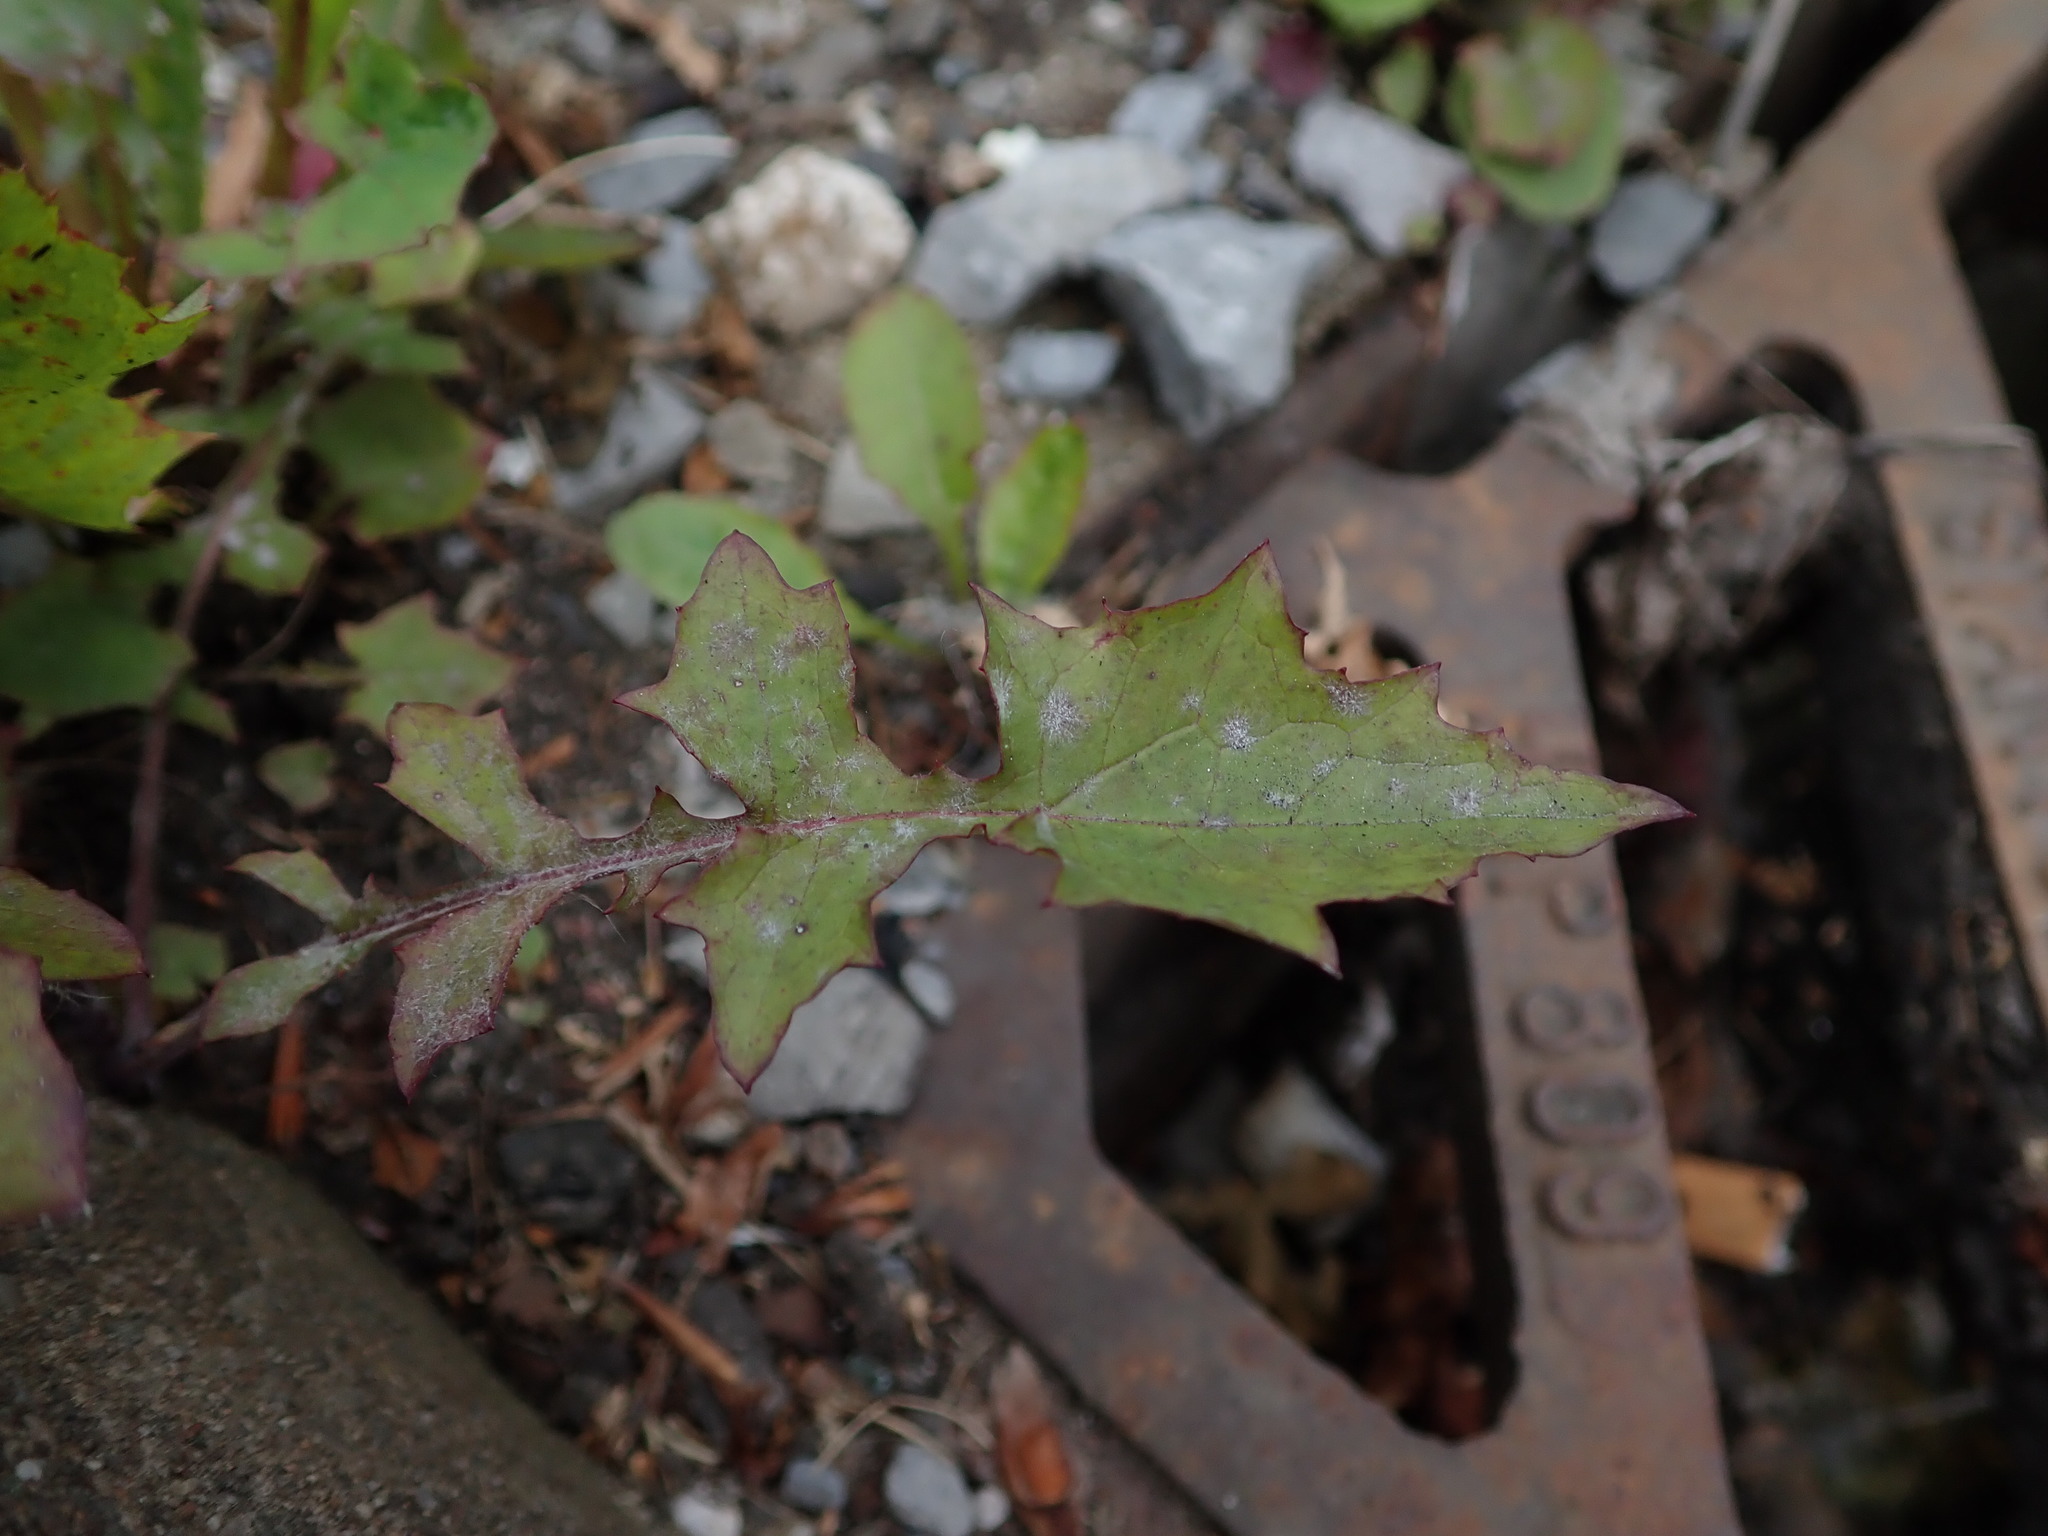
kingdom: Plantae
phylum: Tracheophyta
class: Magnoliopsida
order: Asterales
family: Asteraceae
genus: Mycelis
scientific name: Mycelis muralis
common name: Wall lettuce
